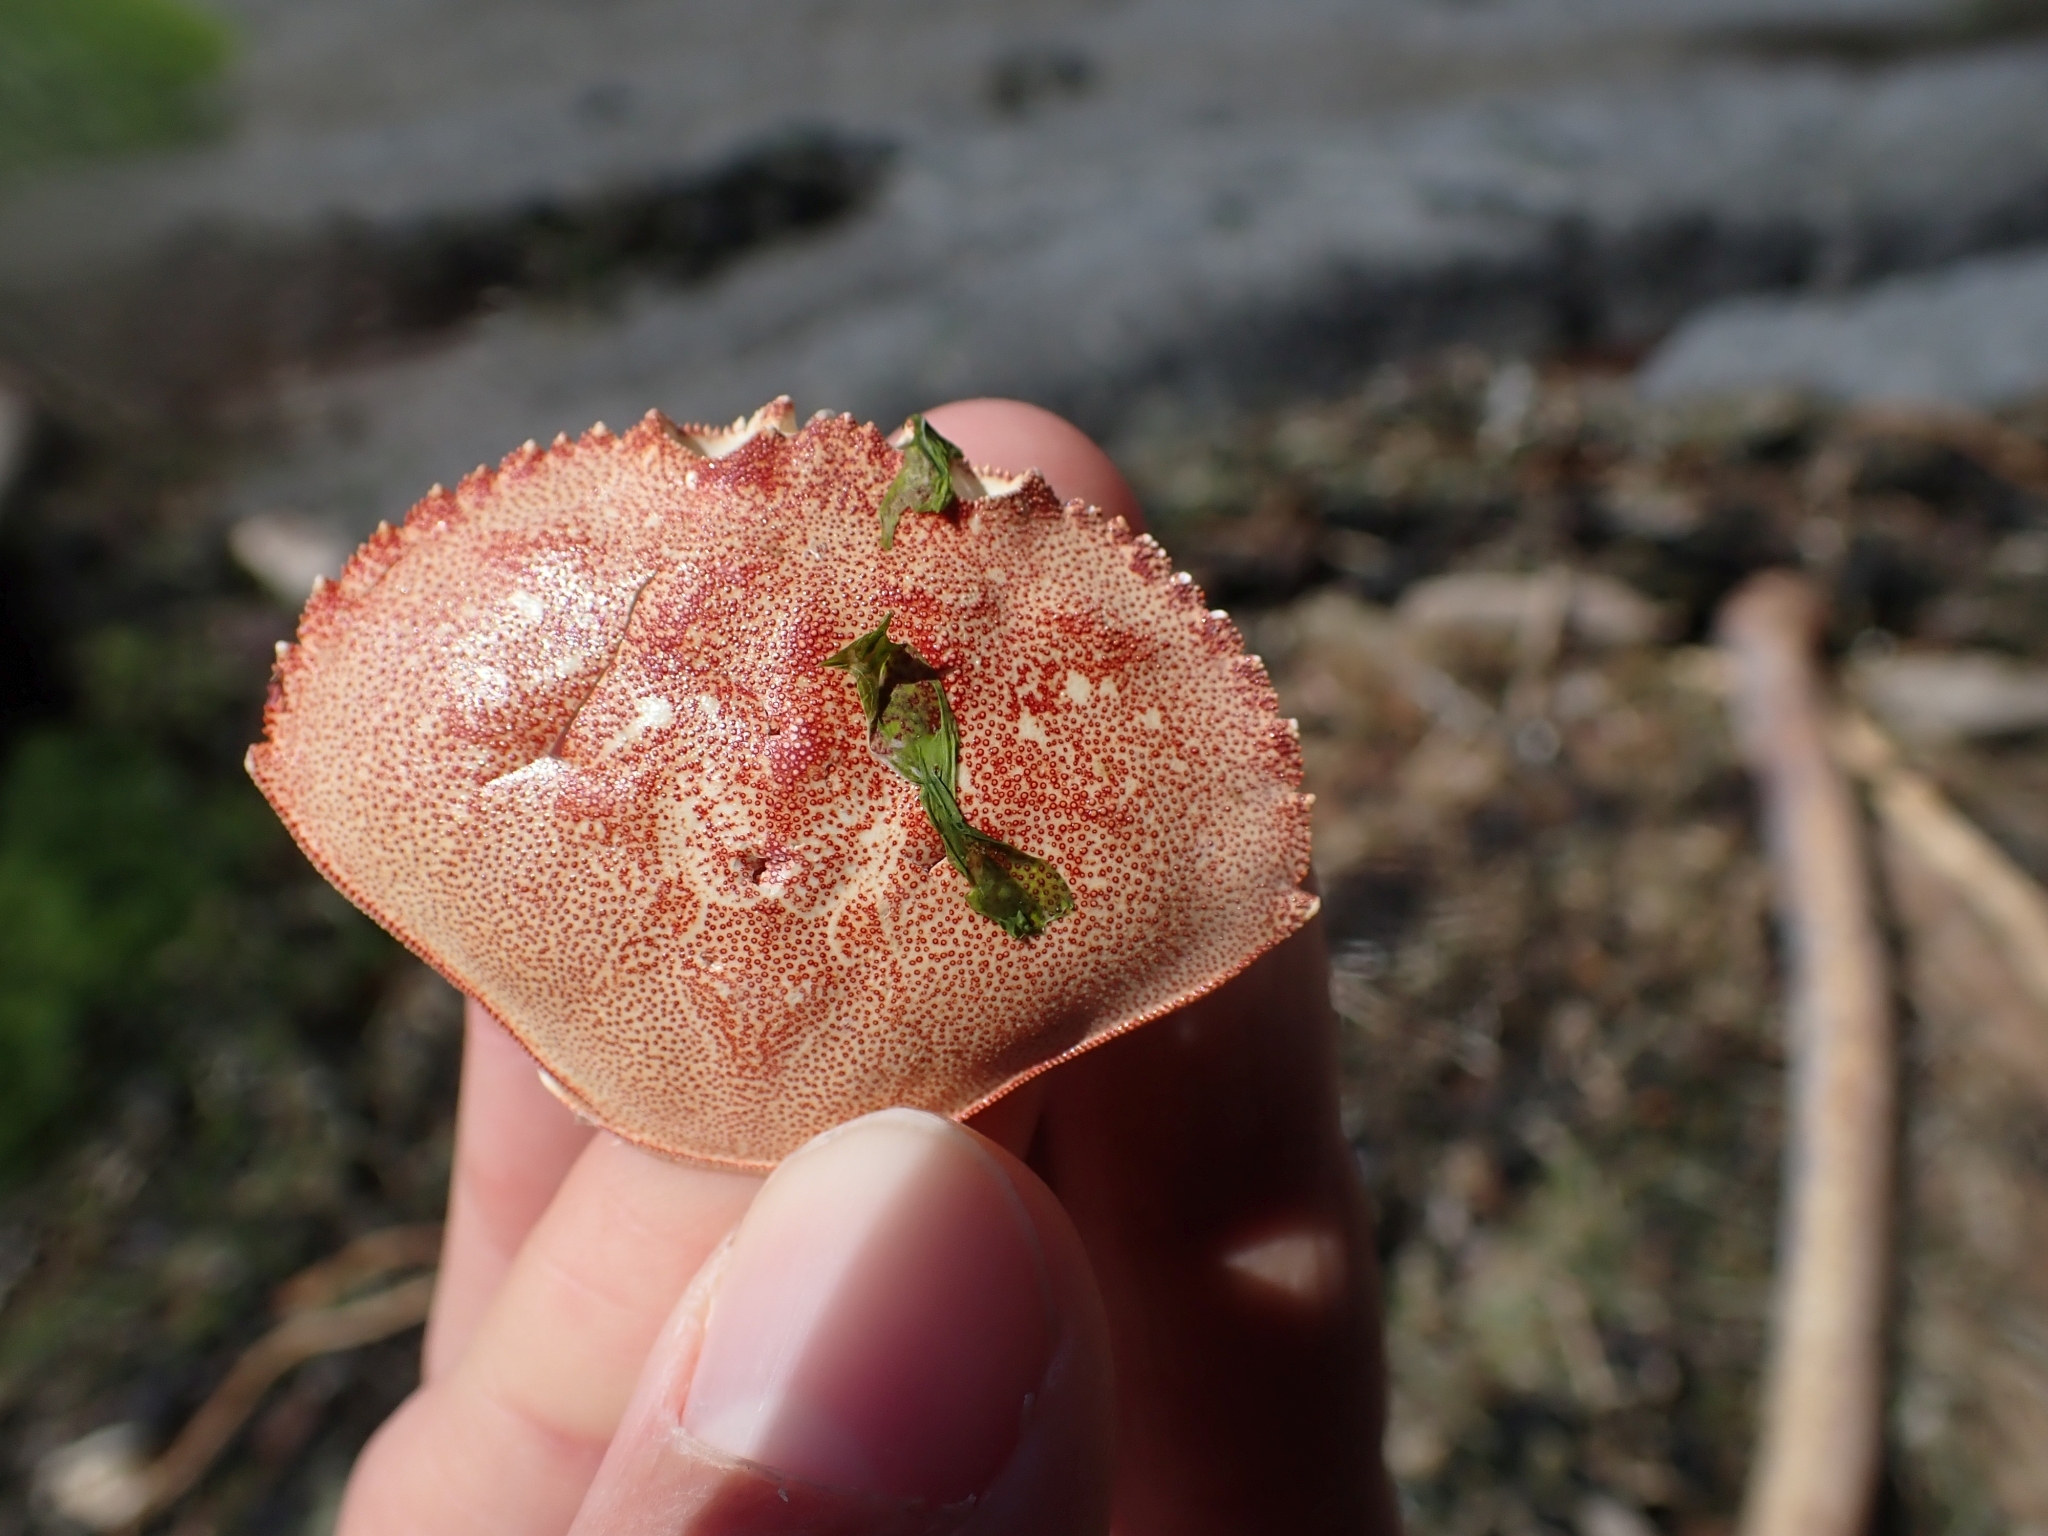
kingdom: Animalia
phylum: Arthropoda
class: Malacostraca
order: Decapoda
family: Cancridae
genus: Metacarcinus
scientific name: Metacarcinus magister
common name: Californian crab
